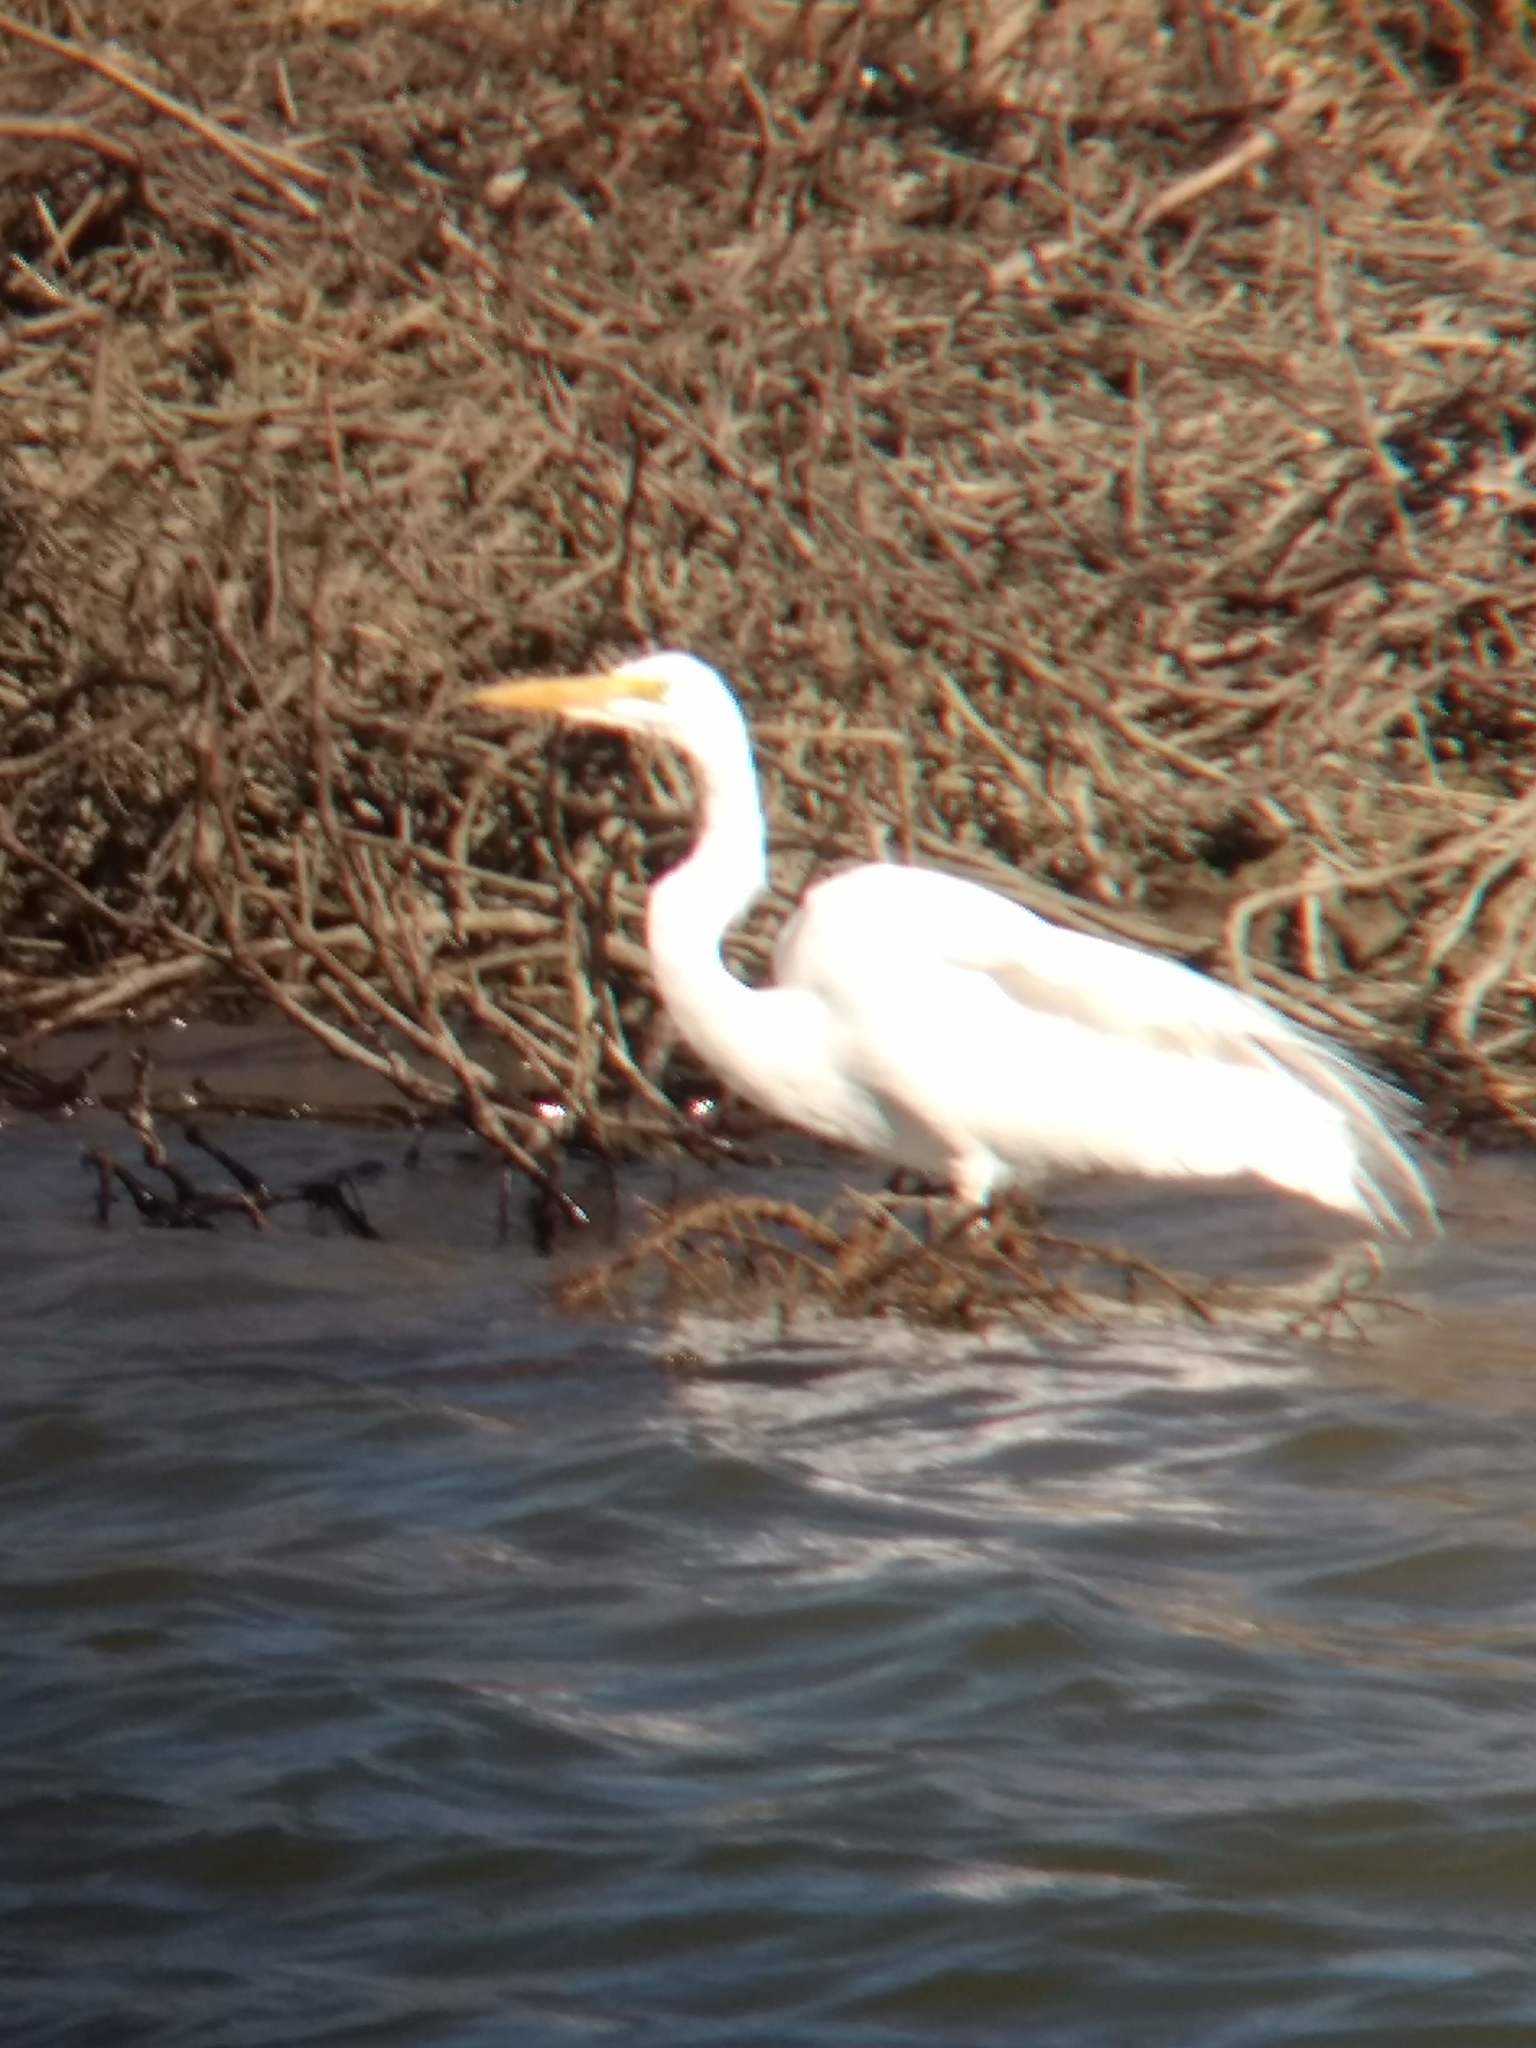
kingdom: Animalia
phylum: Chordata
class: Aves
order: Pelecaniformes
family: Ardeidae
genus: Ardea
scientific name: Ardea alba
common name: Great egret
